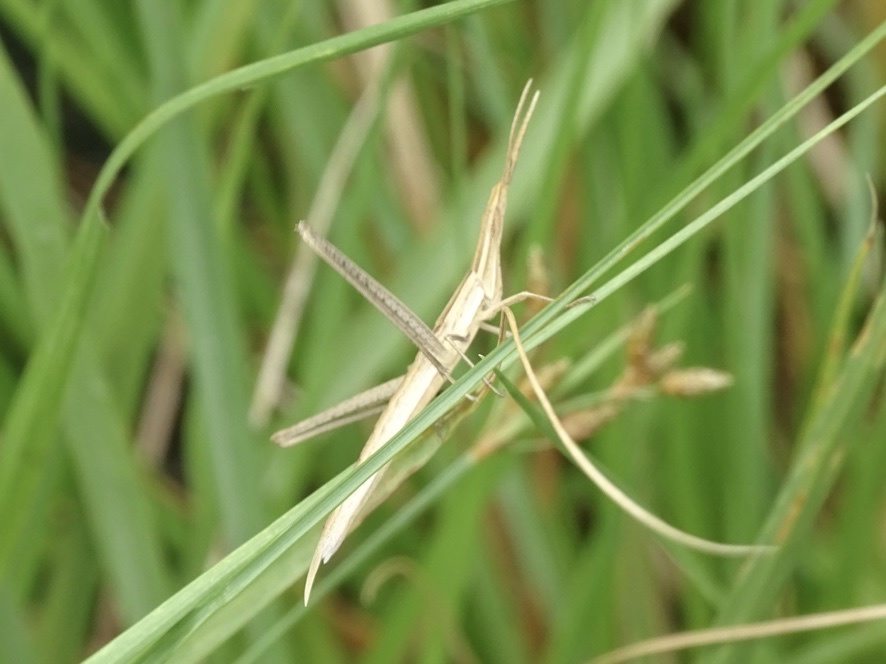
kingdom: Animalia
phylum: Arthropoda
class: Insecta
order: Orthoptera
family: Acrididae
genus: Acrida
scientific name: Acrida cinerea
